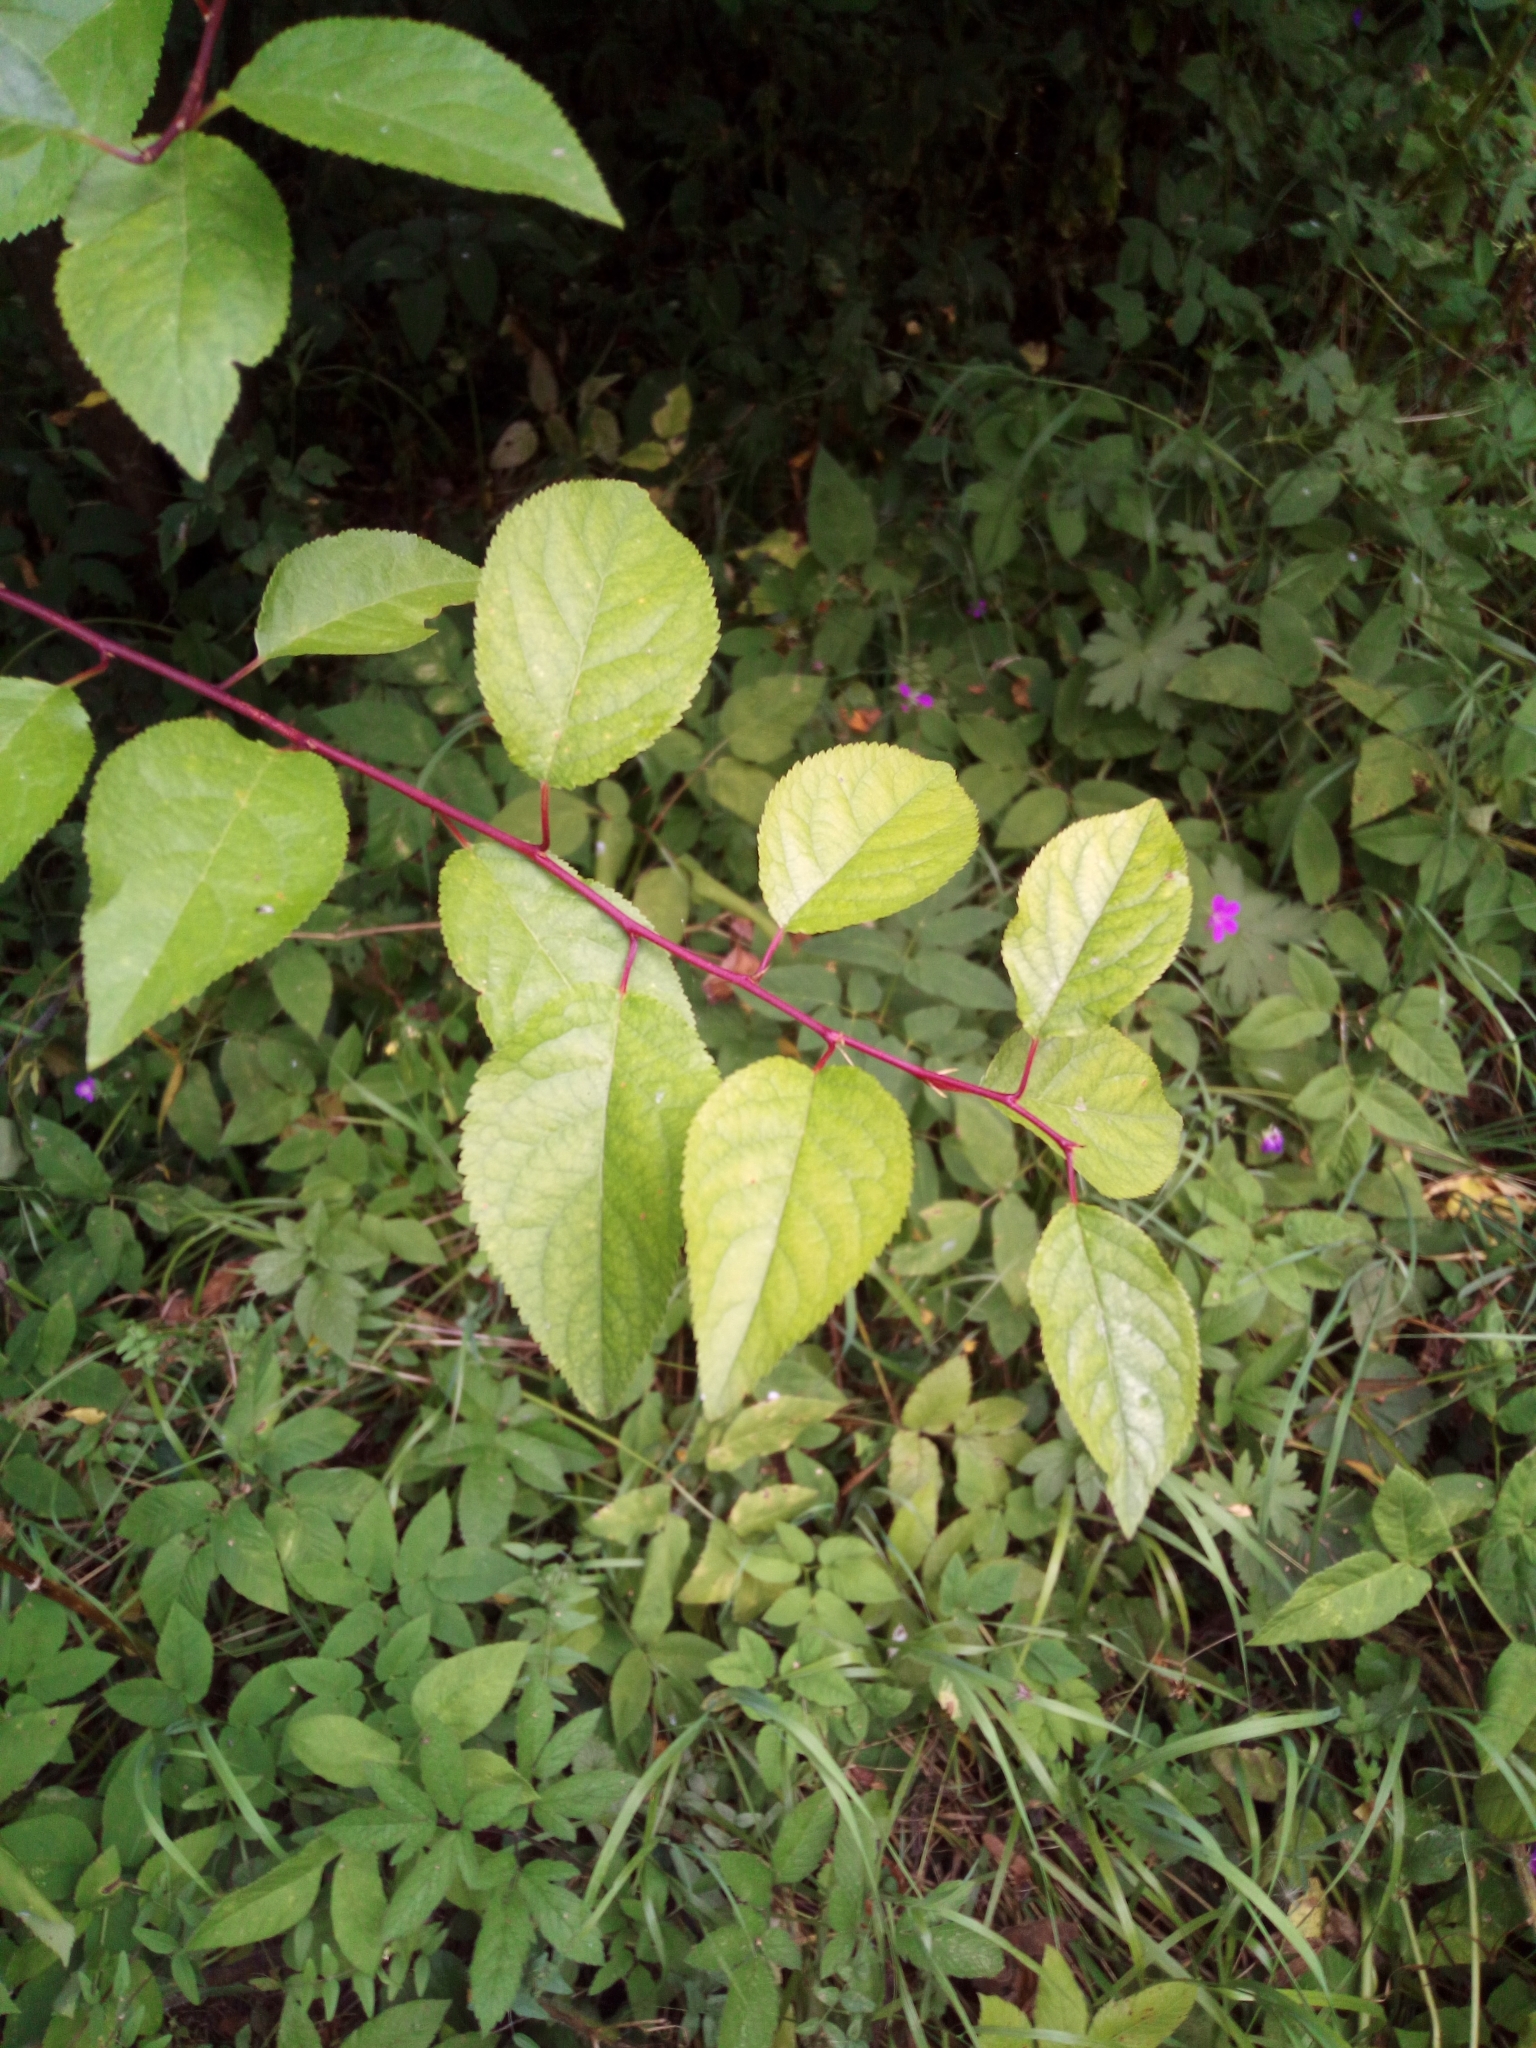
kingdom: Plantae
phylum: Tracheophyta
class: Magnoliopsida
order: Rosales
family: Rosaceae
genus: Malus
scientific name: Malus sylvestris
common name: Crab apple
